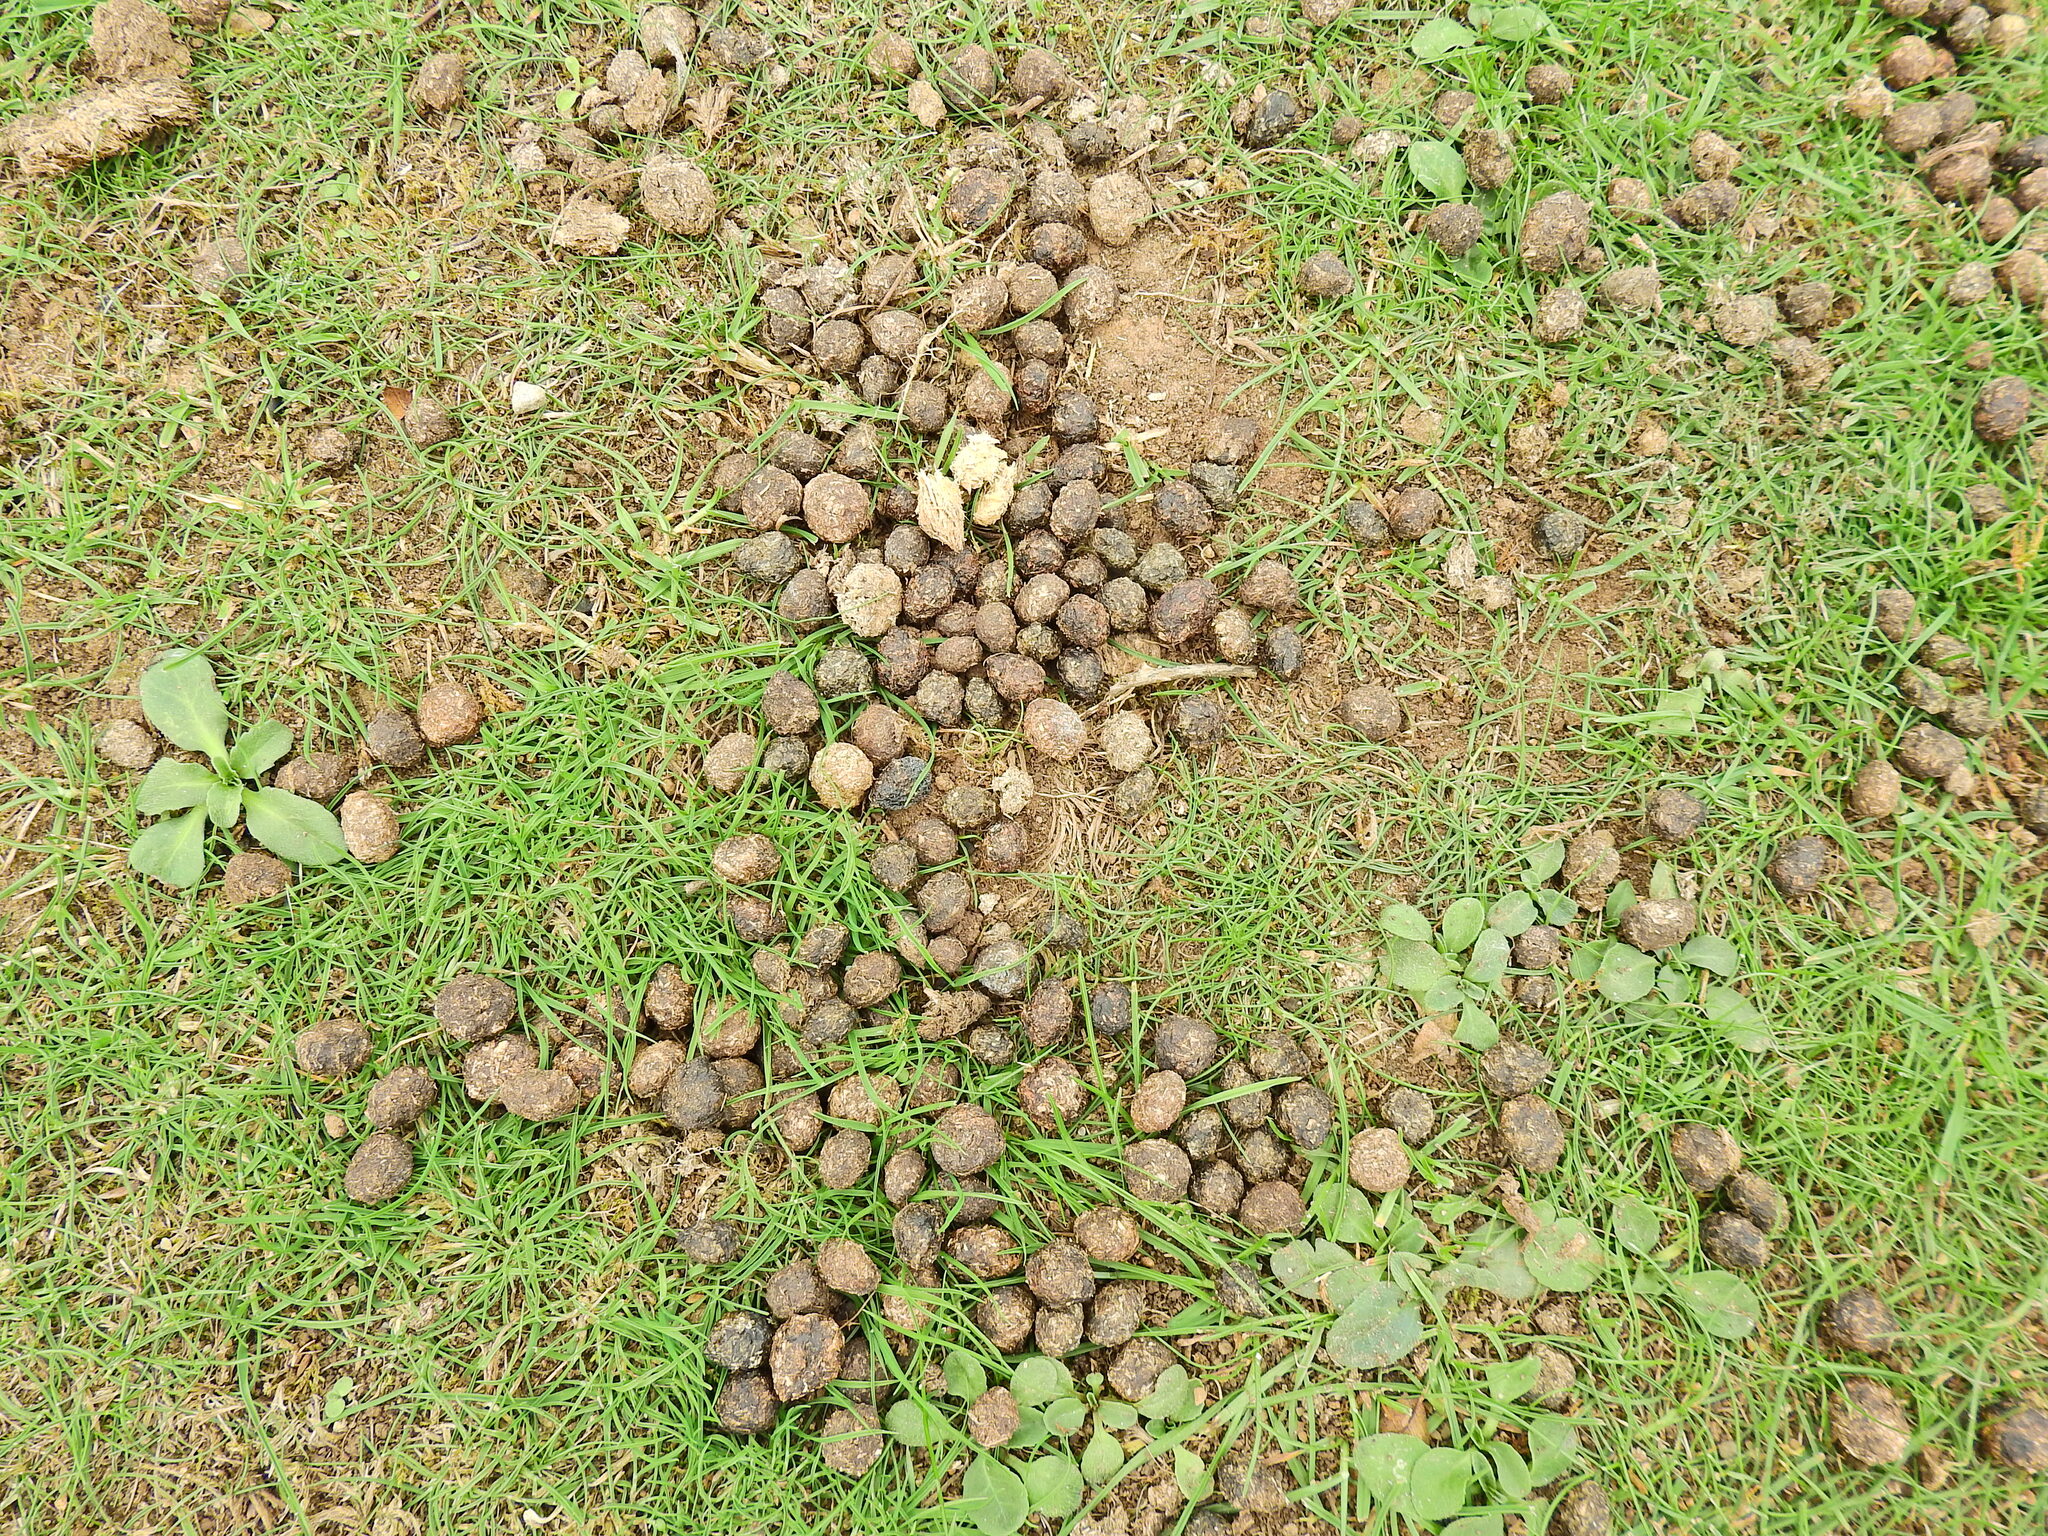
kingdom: Animalia
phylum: Chordata
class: Mammalia
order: Lagomorpha
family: Leporidae
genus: Oryctolagus
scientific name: Oryctolagus cuniculus
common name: European rabbit
